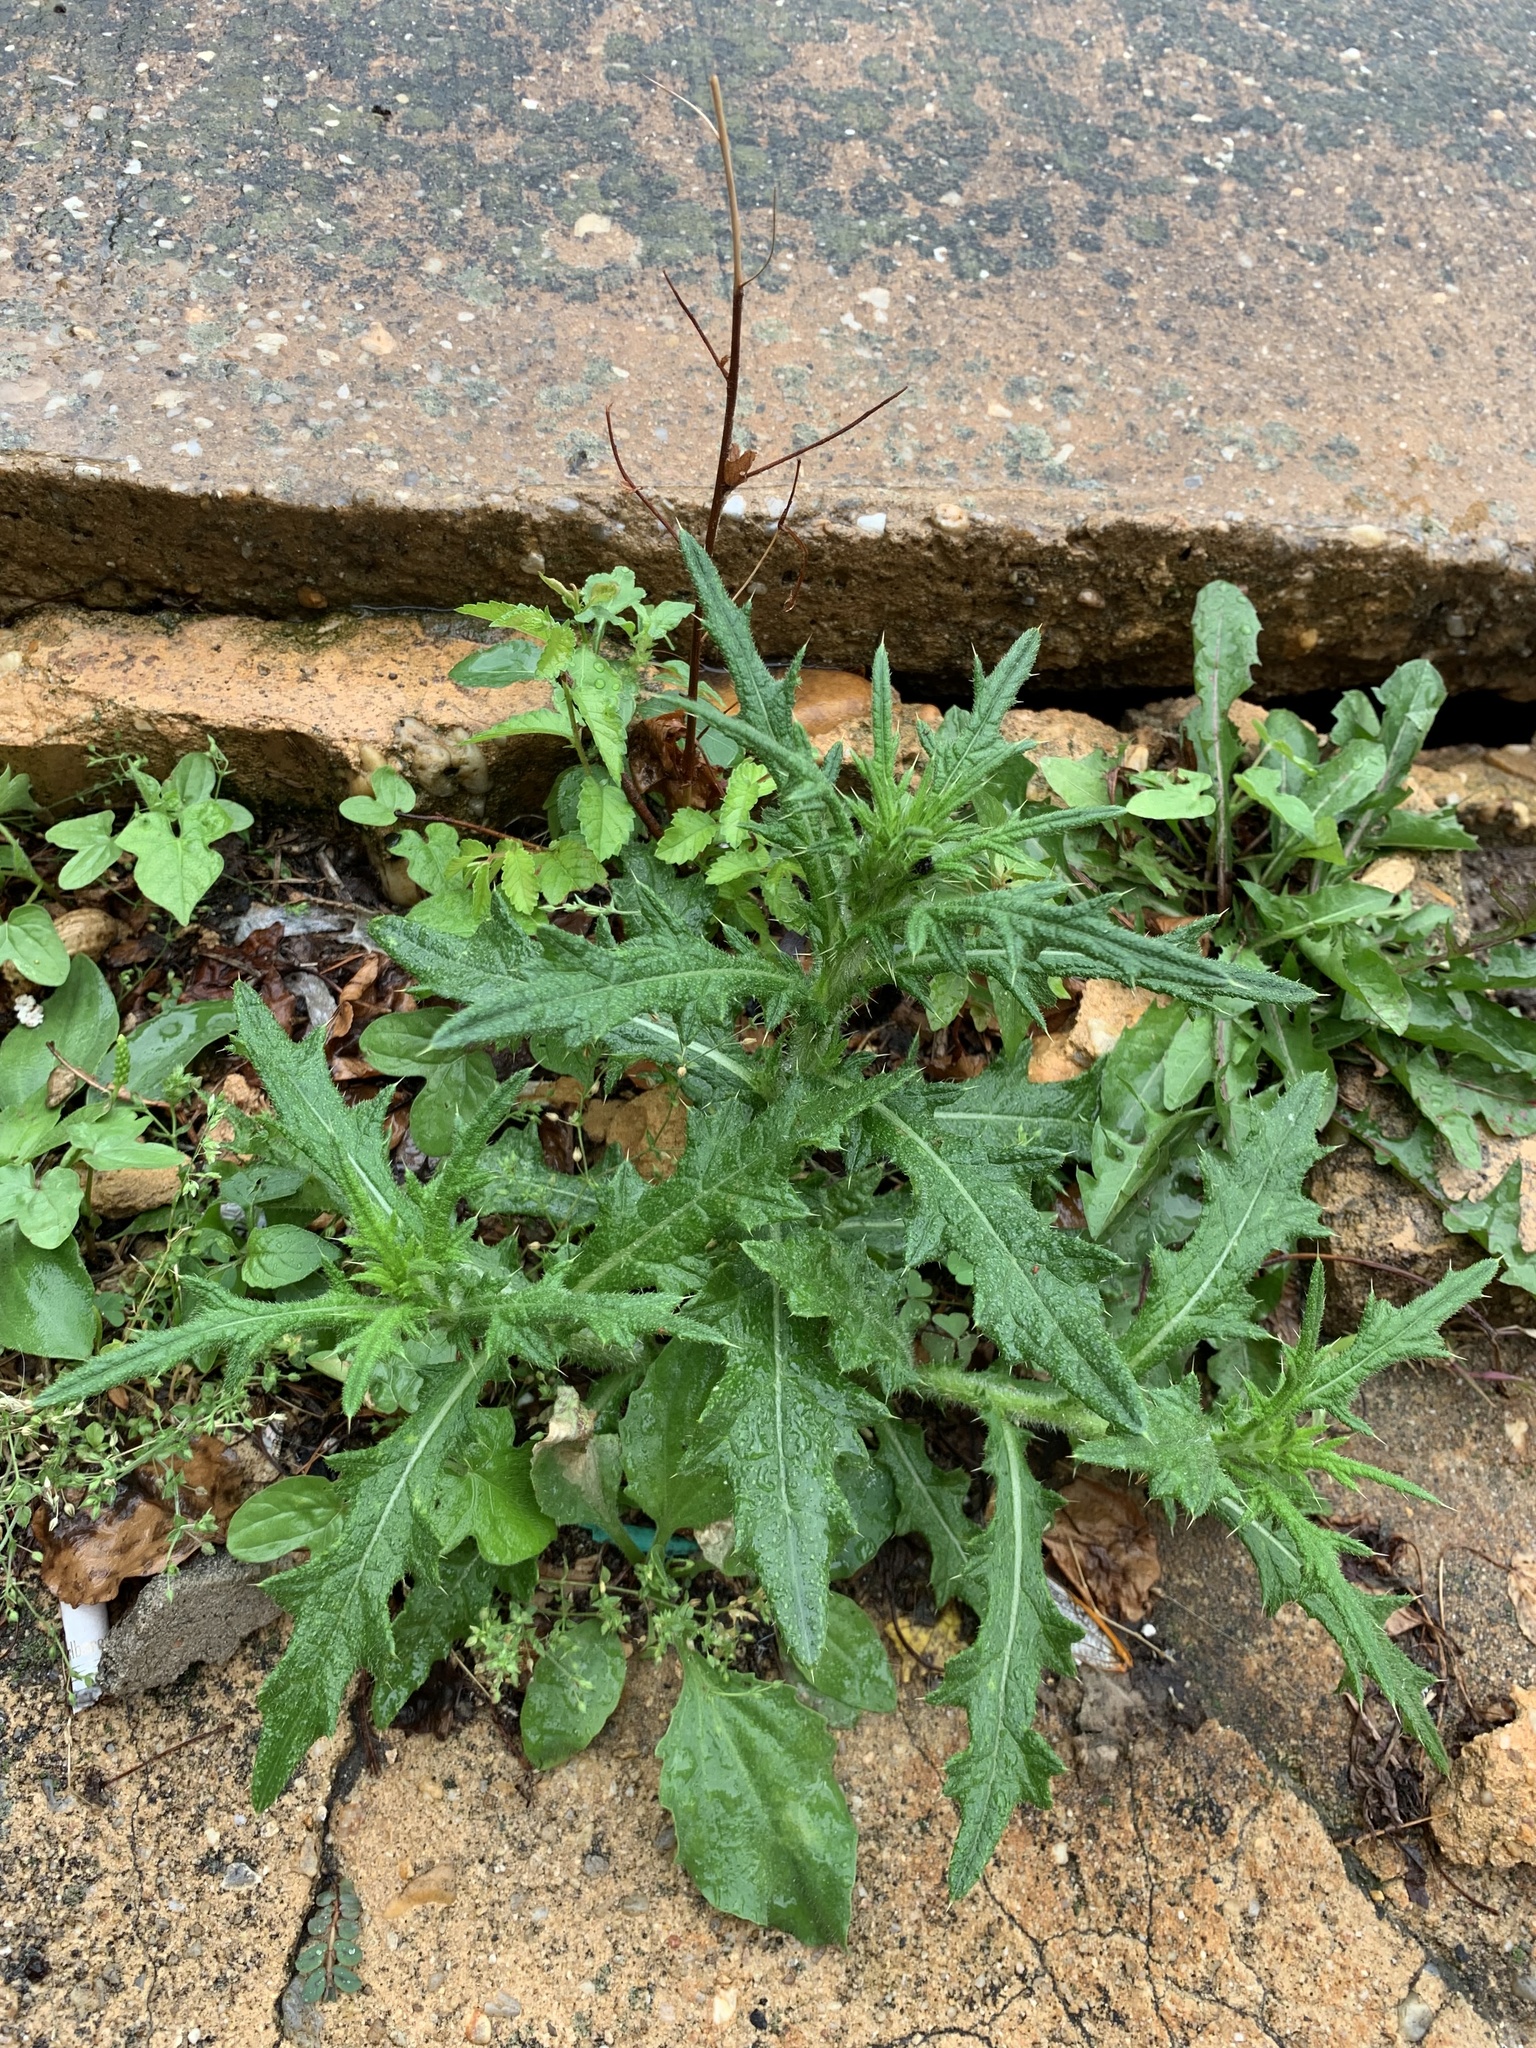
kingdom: Plantae
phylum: Tracheophyta
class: Magnoliopsida
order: Asterales
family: Asteraceae
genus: Cirsium
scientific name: Cirsium vulgare
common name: Bull thistle
